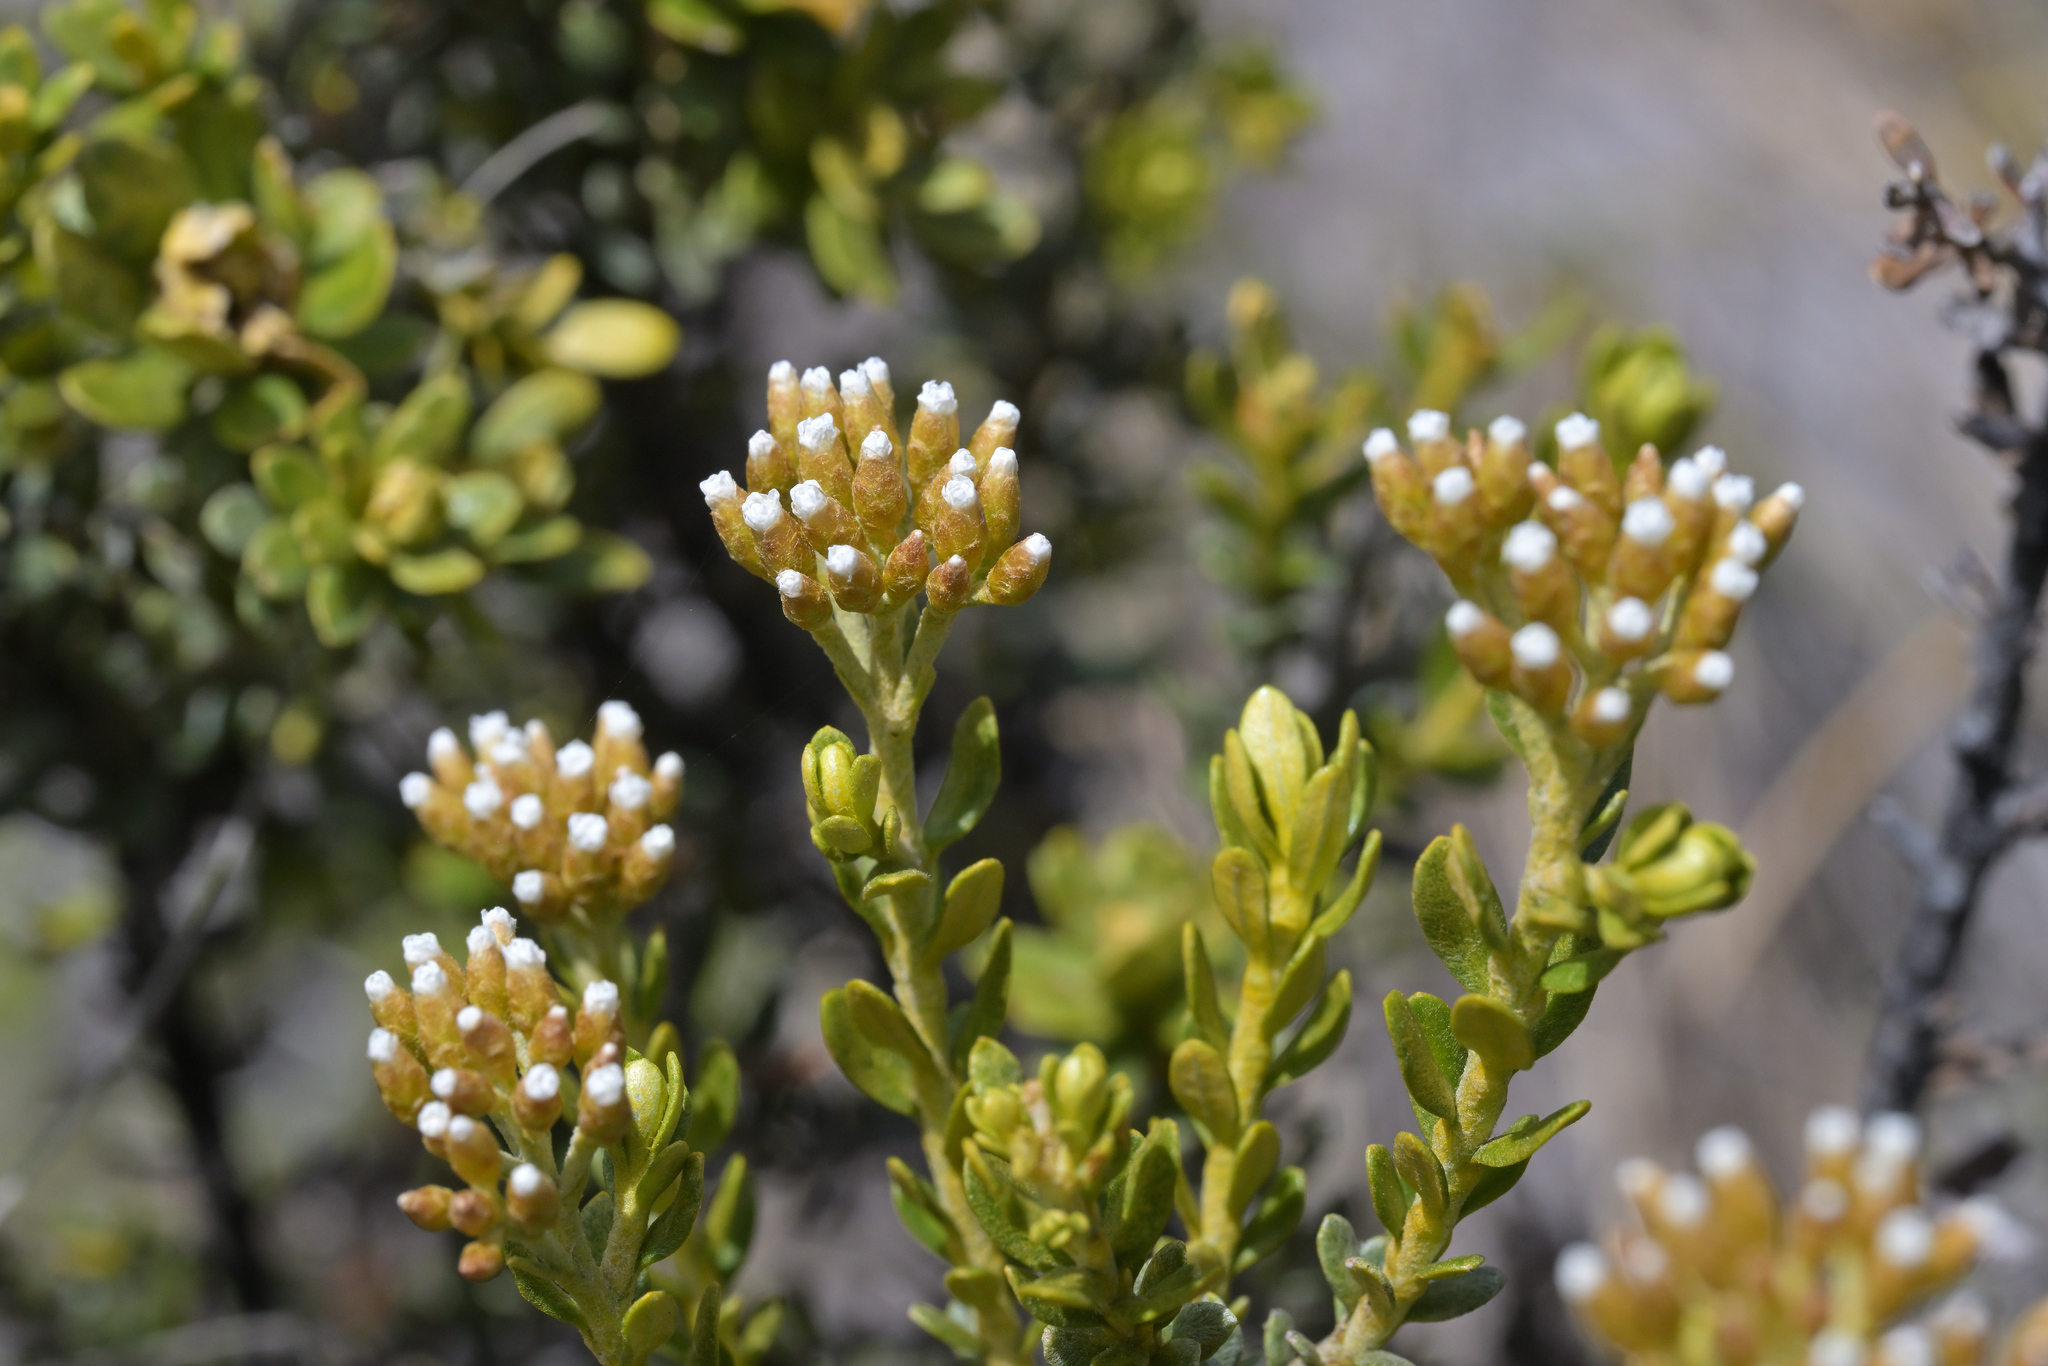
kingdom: Plantae
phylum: Tracheophyta
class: Magnoliopsida
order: Asterales
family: Asteraceae
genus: Ozothamnus
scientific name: Ozothamnus leptophyllus
